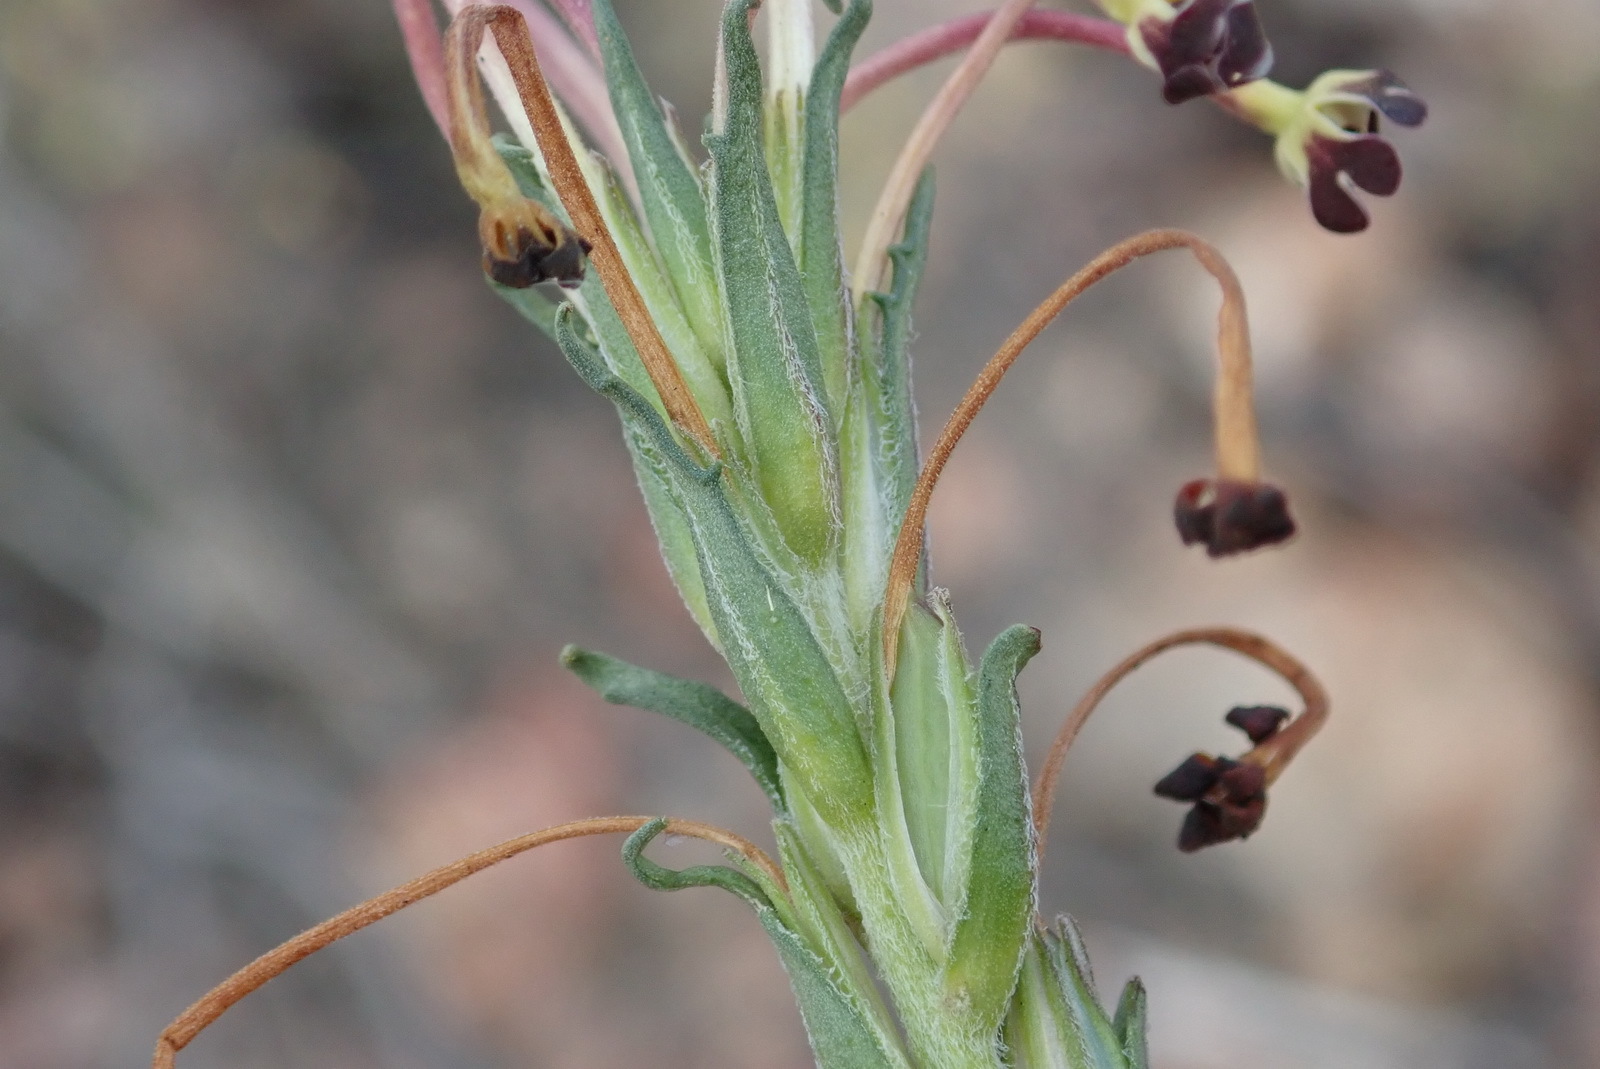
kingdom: Plantae
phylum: Tracheophyta
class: Magnoliopsida
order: Lamiales
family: Scrophulariaceae
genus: Zaluzianskya
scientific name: Zaluzianskya capensis
